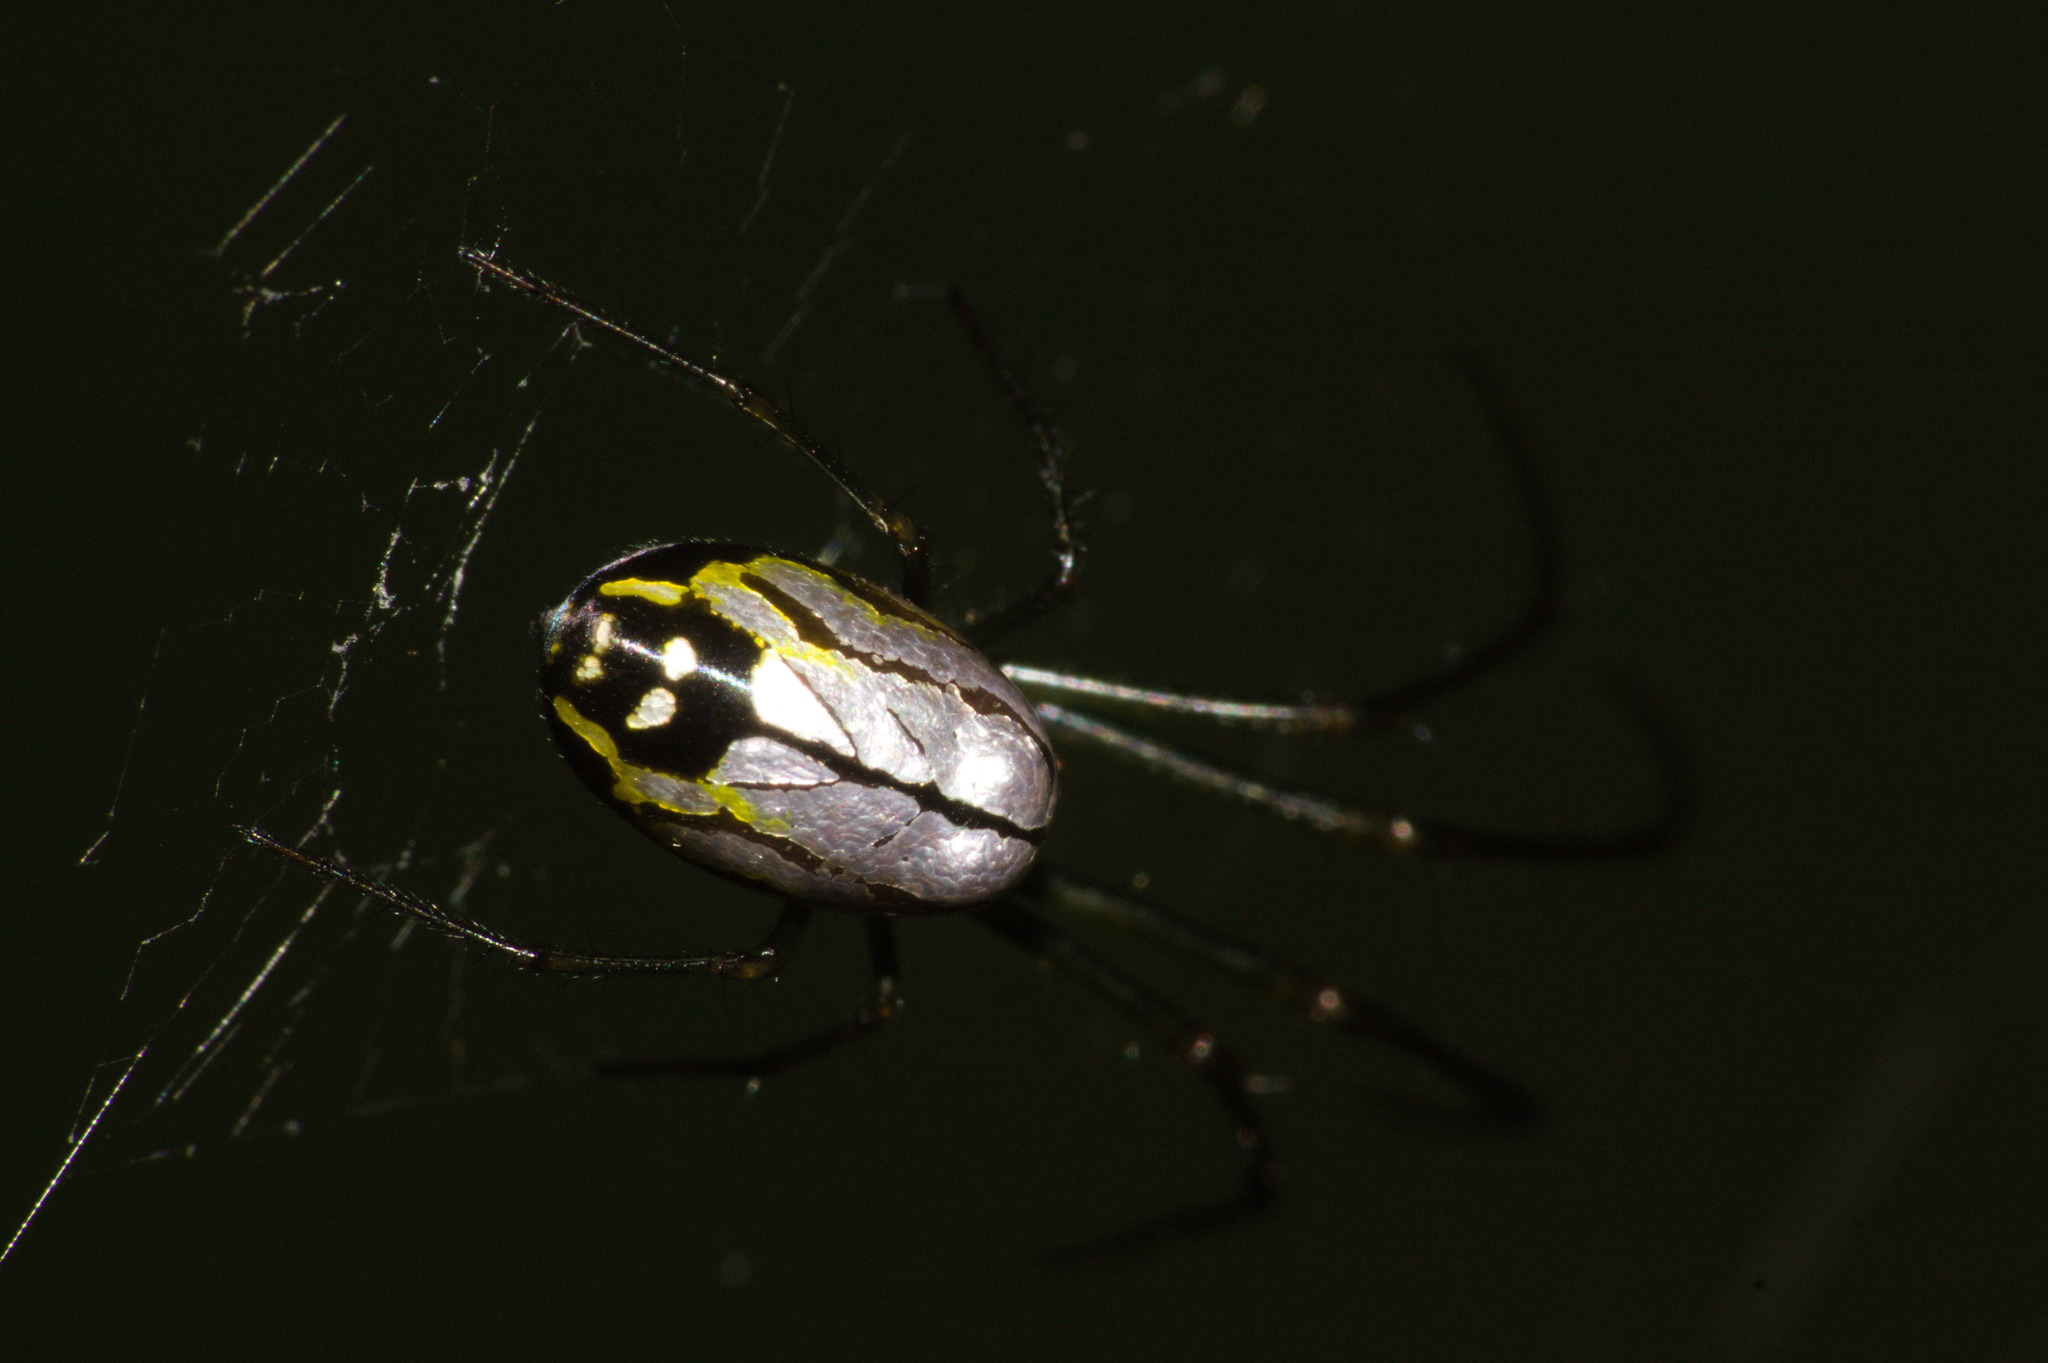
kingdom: Animalia
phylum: Arthropoda
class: Arachnida
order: Araneae
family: Tetragnathidae
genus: Leucauge
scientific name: Leucauge volupis
